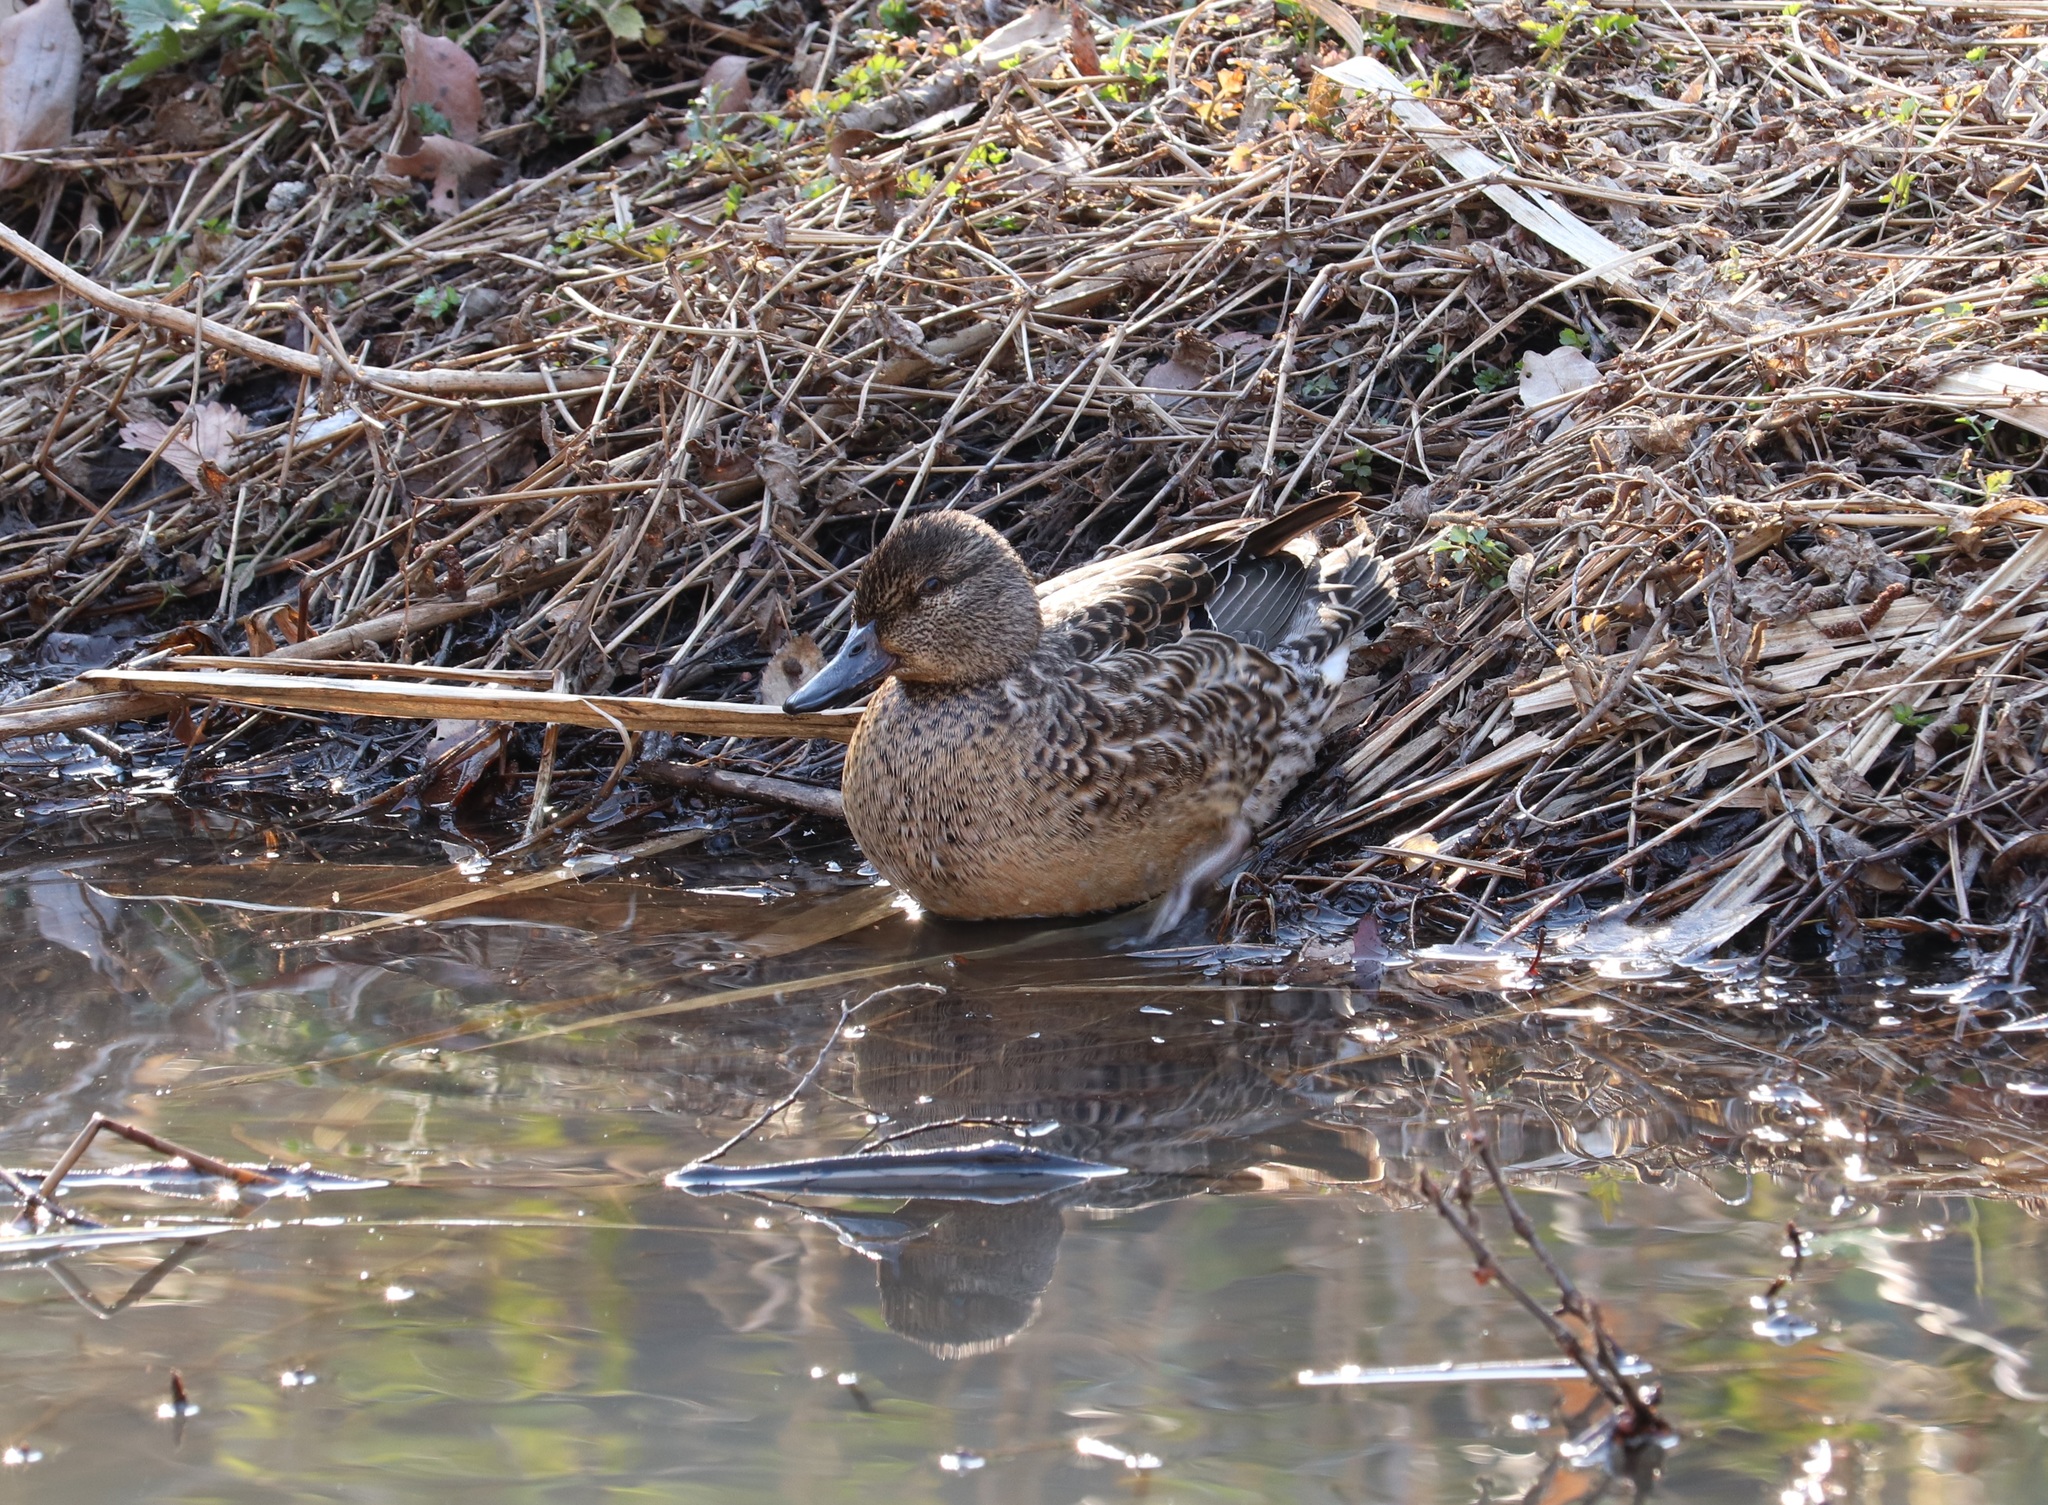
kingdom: Animalia
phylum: Chordata
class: Aves
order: Anseriformes
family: Anatidae
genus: Anas
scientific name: Anas crecca
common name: Eurasian teal
